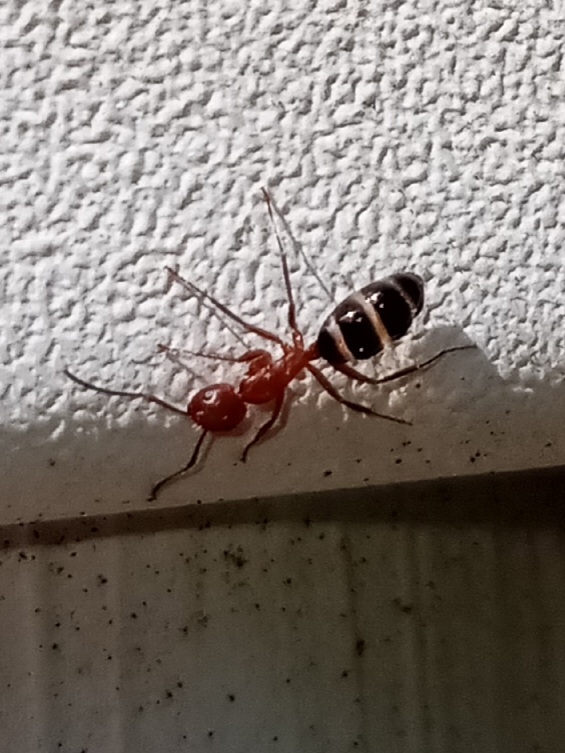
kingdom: Animalia
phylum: Arthropoda
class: Insecta
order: Hymenoptera
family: Formicidae
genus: Camponotus
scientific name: Camponotus decipiens
